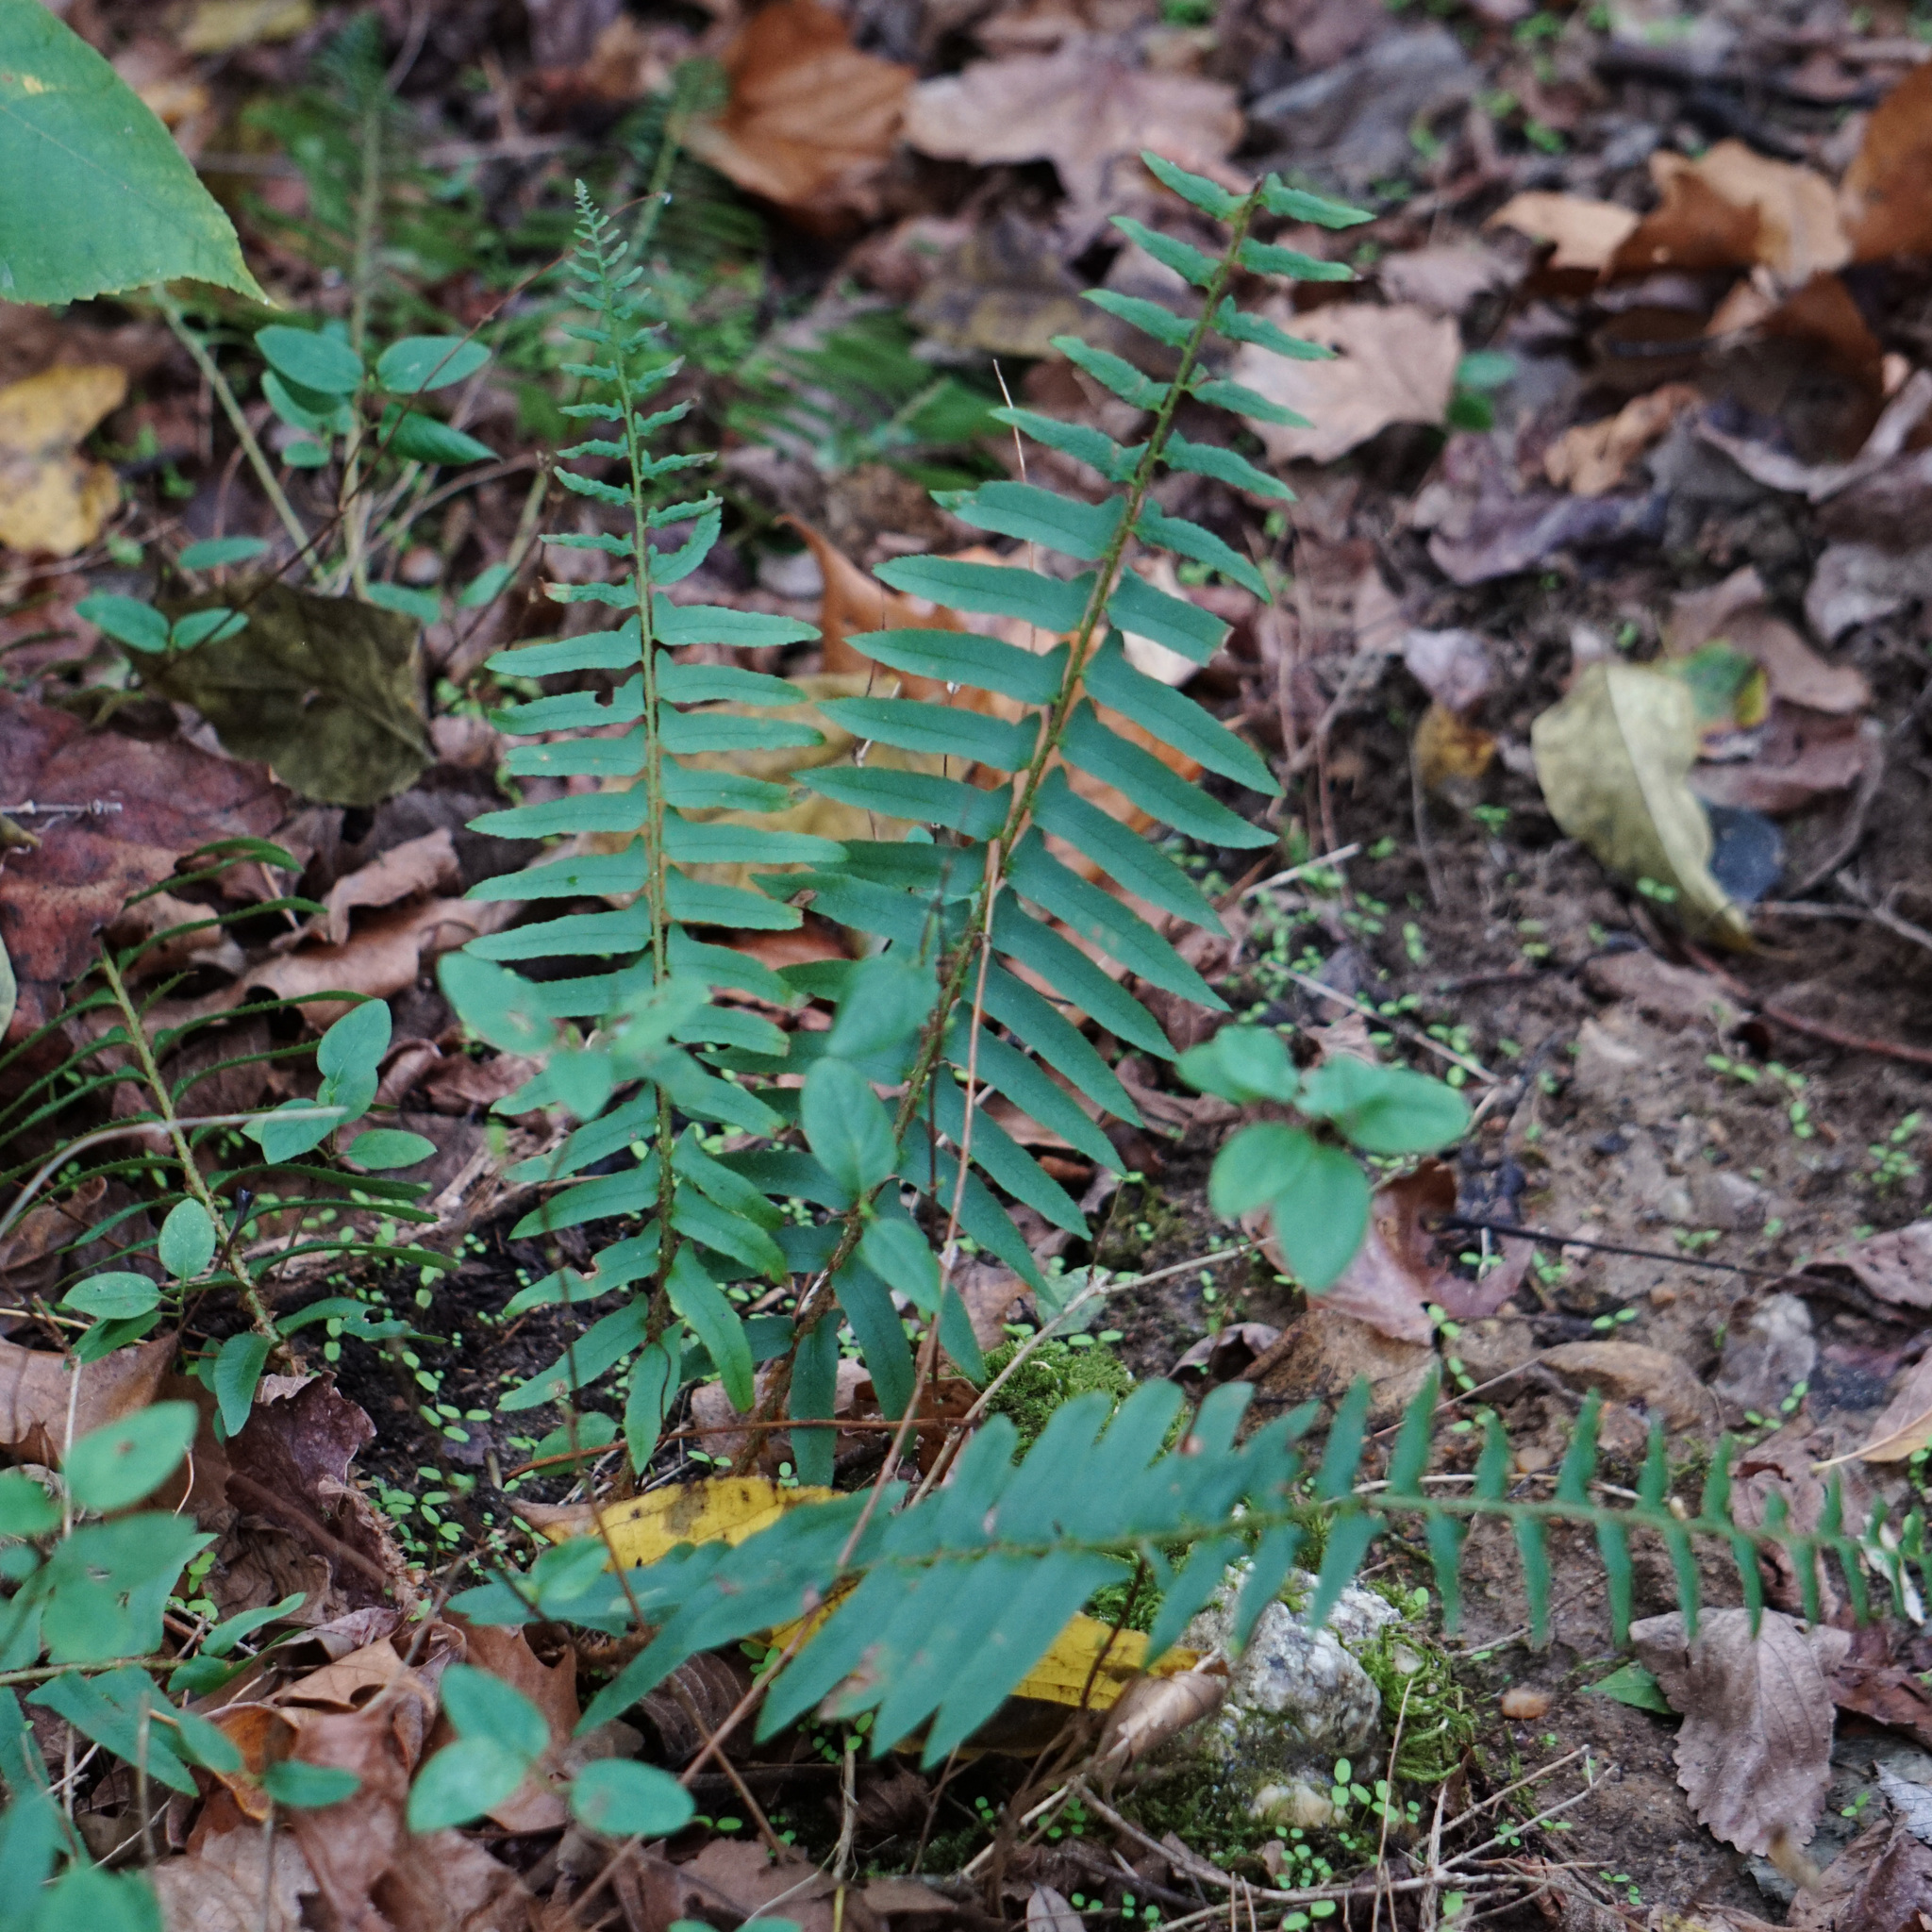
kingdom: Plantae
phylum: Tracheophyta
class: Polypodiopsida
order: Polypodiales
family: Dryopteridaceae
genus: Polystichum
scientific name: Polystichum acrostichoides
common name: Christmas fern
